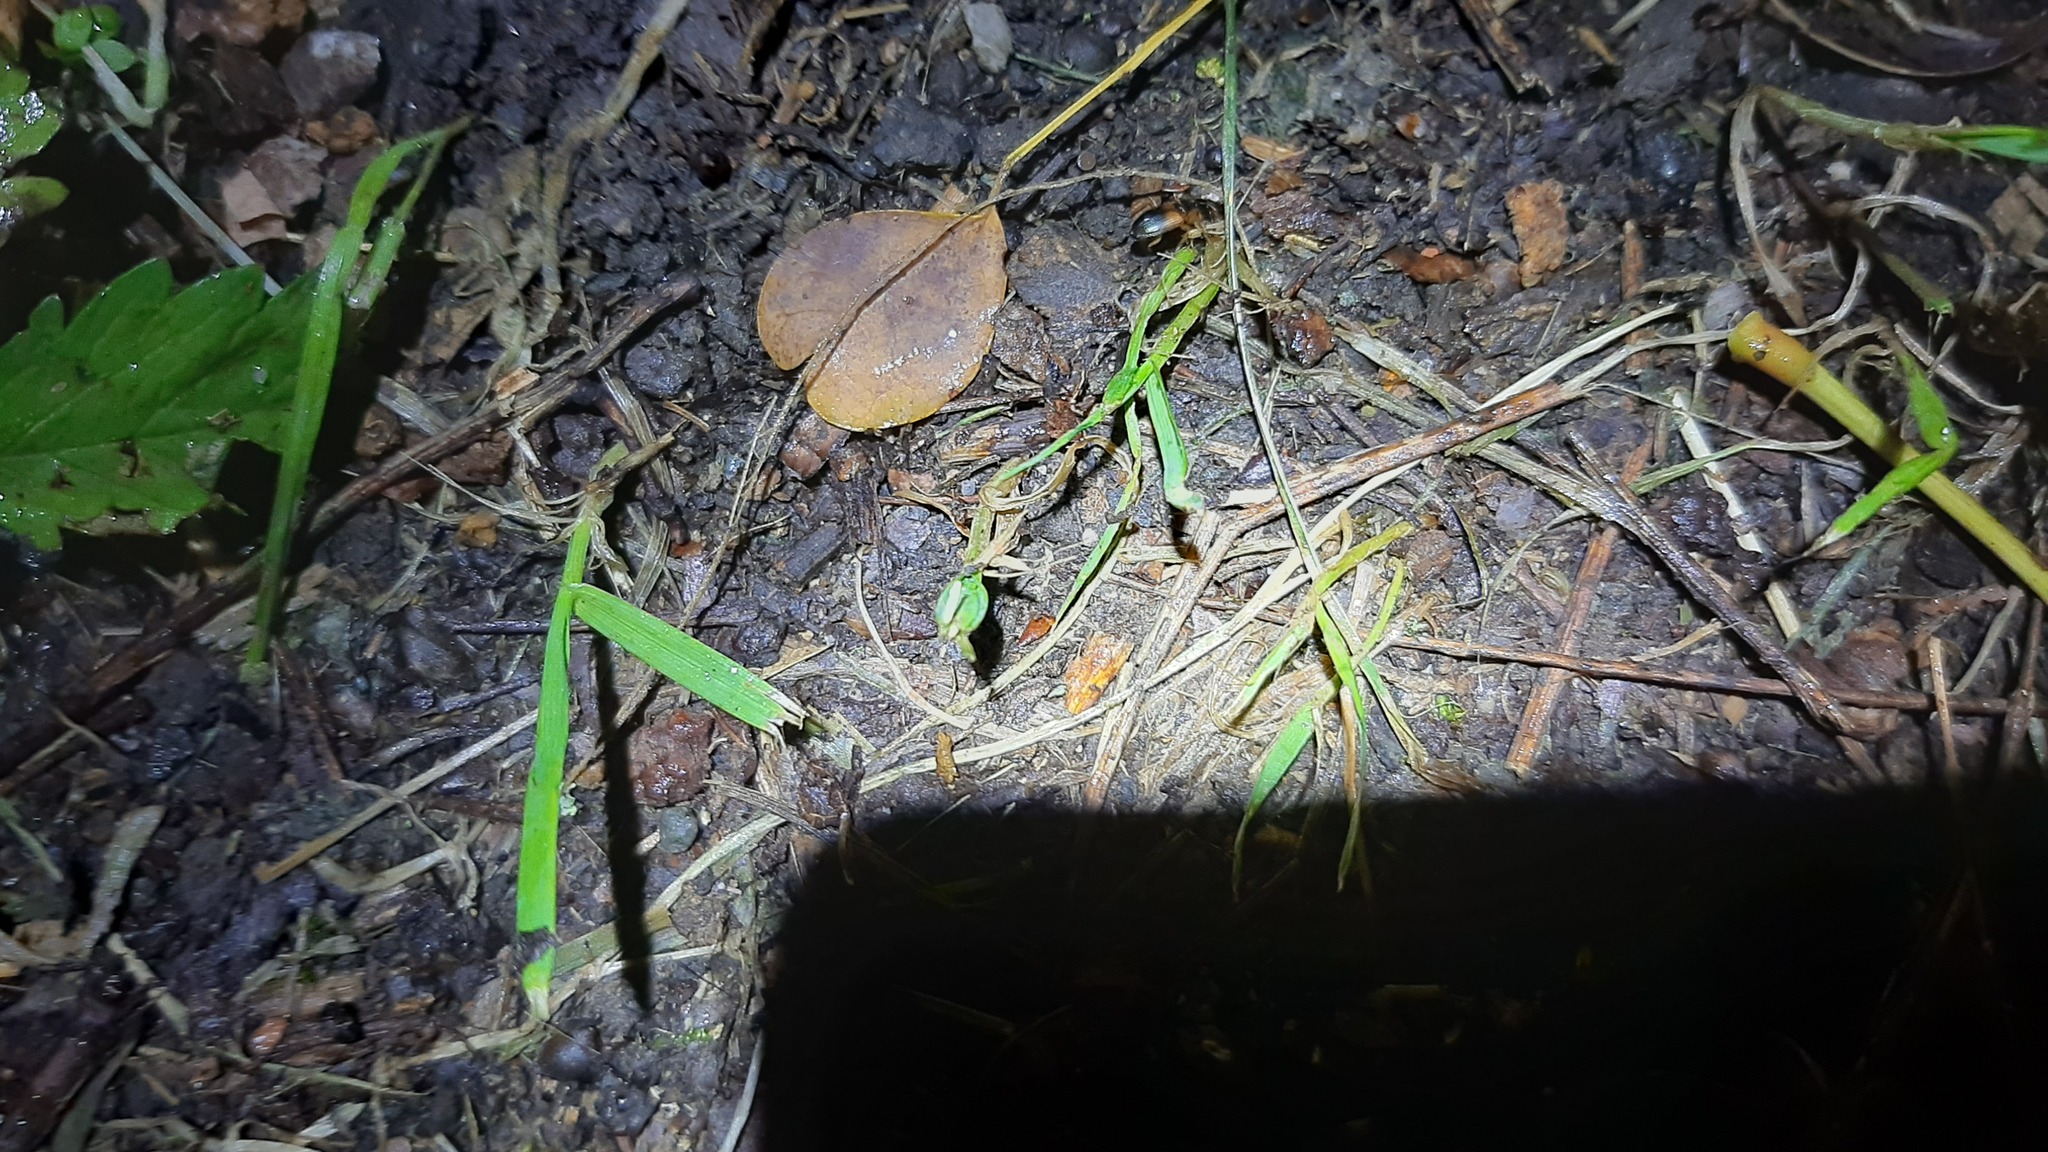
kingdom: Animalia
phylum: Arthropoda
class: Insecta
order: Coleoptera
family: Carabidae
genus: Anchomenus
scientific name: Anchomenus dorsalis
